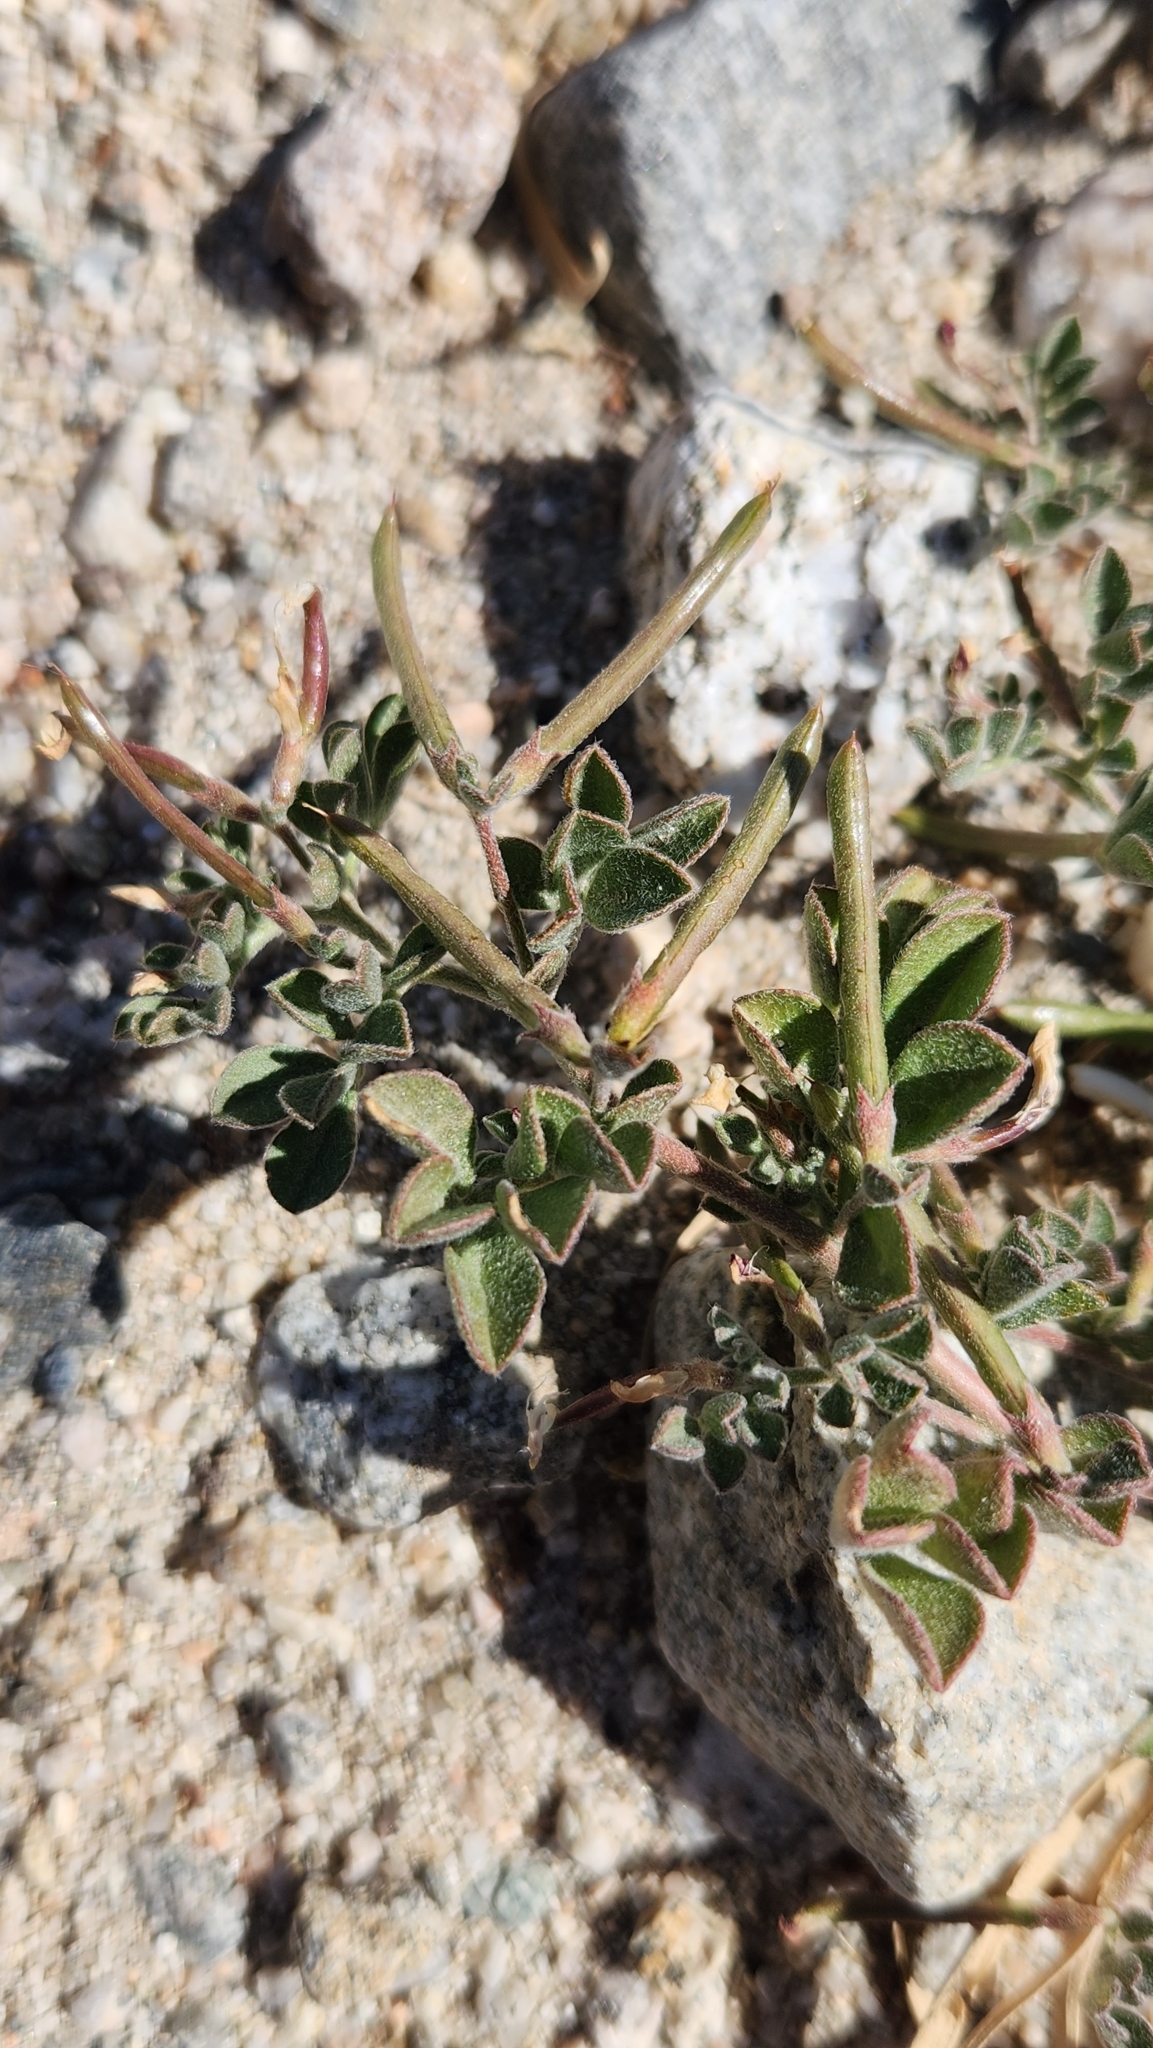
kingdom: Plantae
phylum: Tracheophyta
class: Magnoliopsida
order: Fabales
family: Fabaceae
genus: Acmispon
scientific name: Acmispon strigosus
